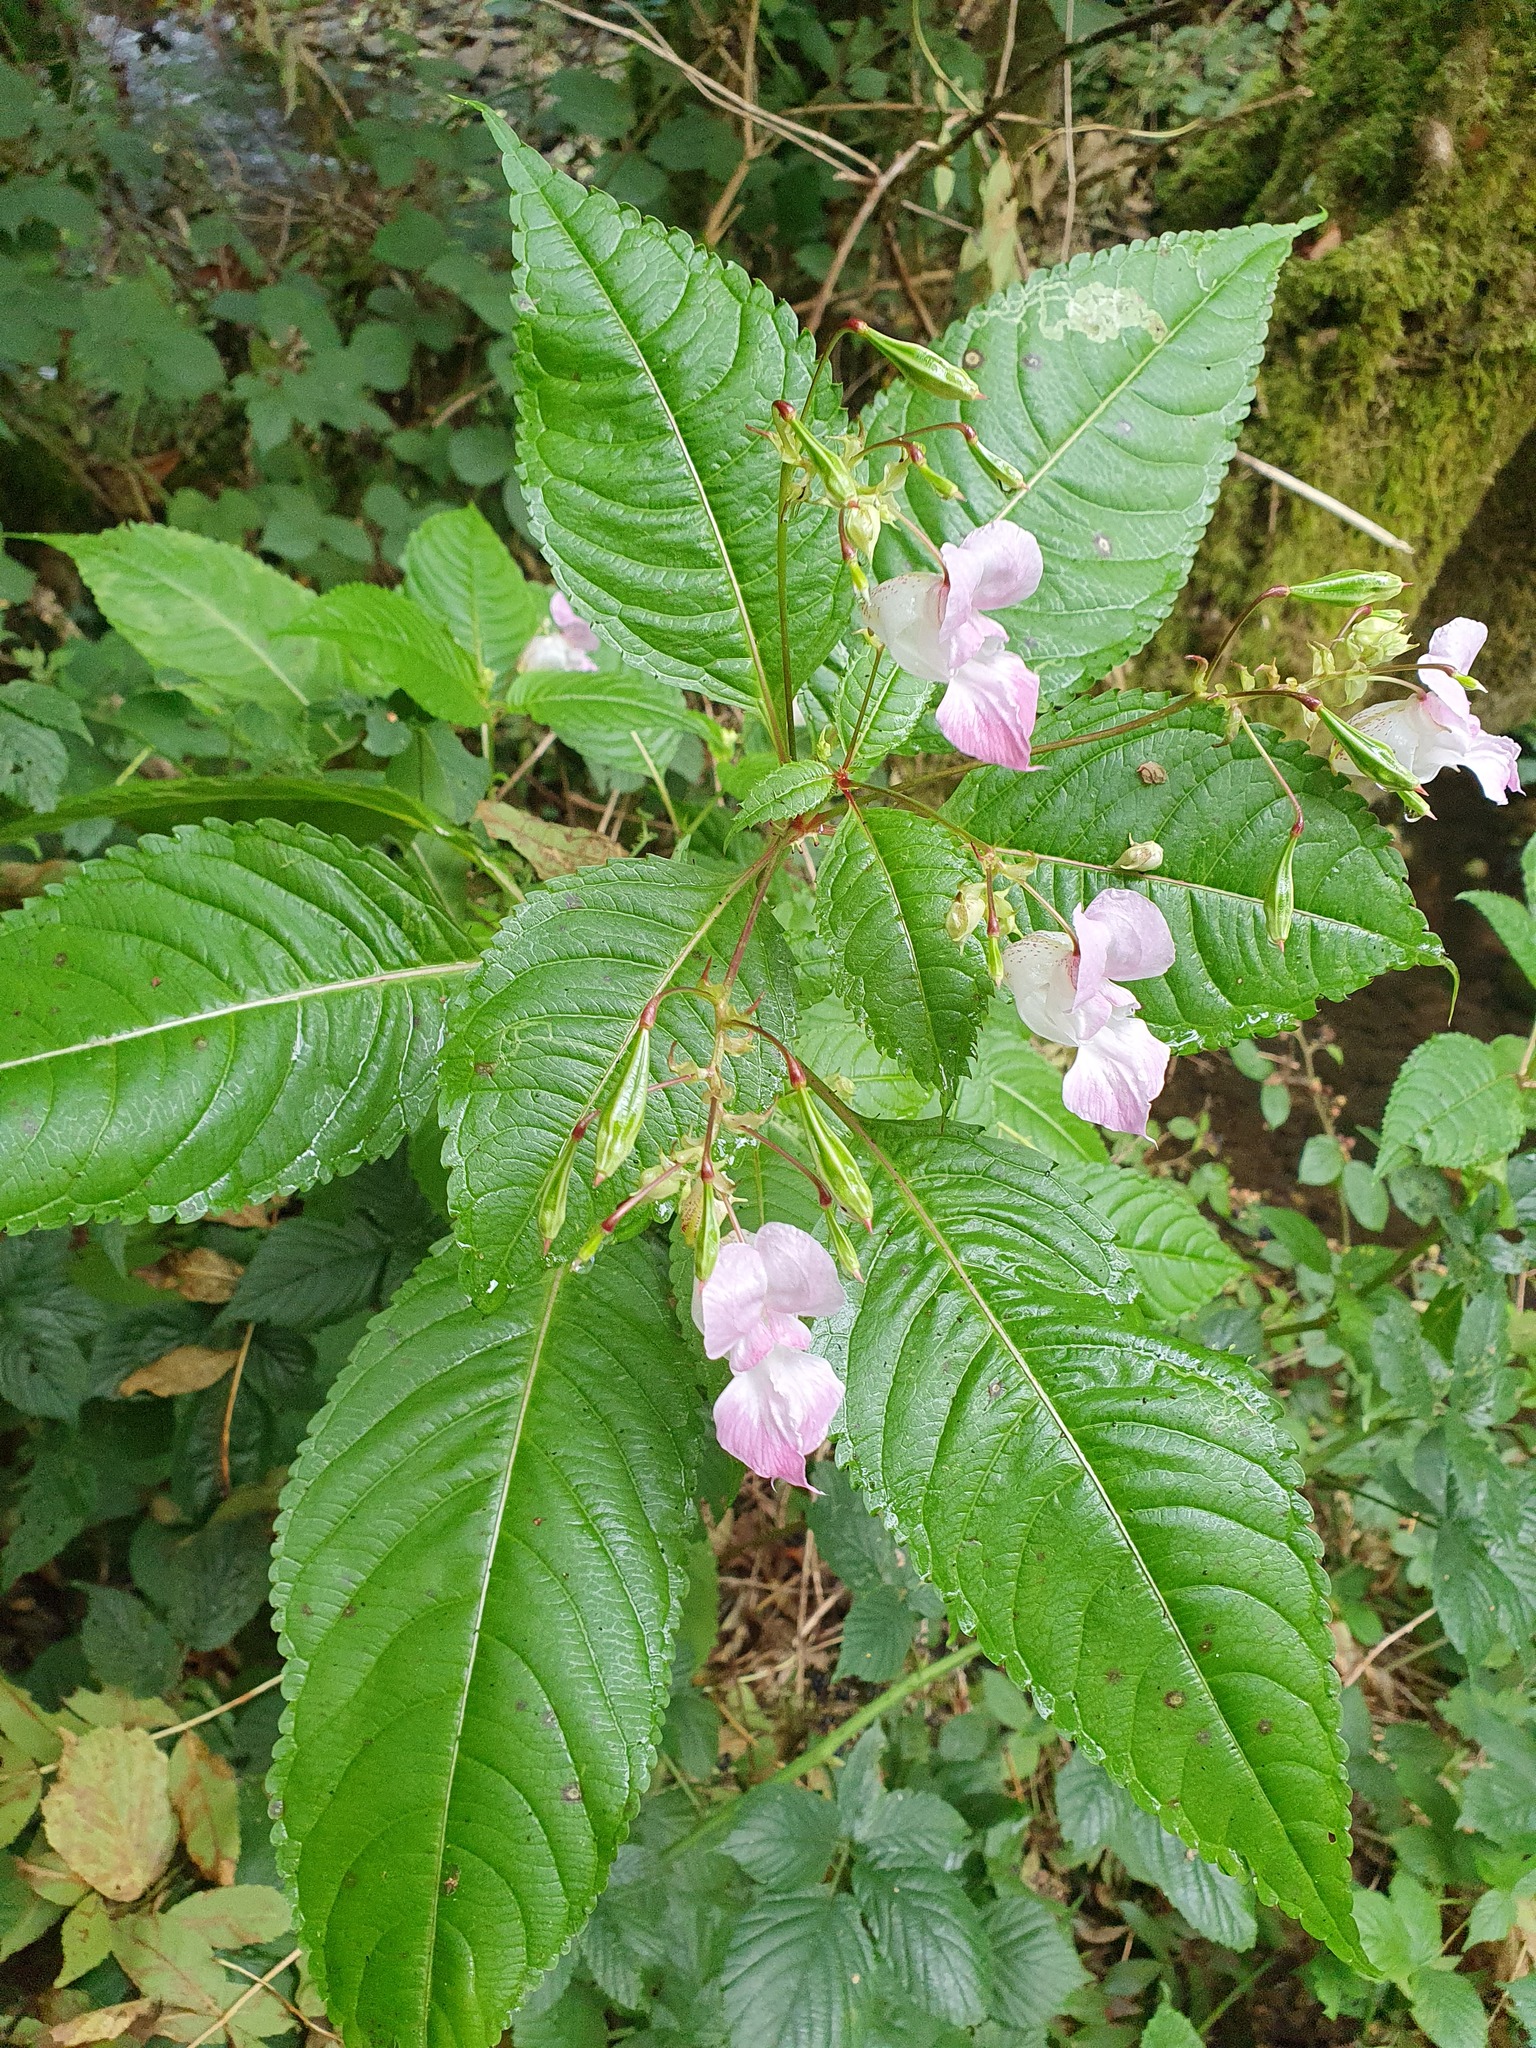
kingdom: Plantae
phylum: Tracheophyta
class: Magnoliopsida
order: Ericales
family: Balsaminaceae
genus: Impatiens
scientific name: Impatiens glandulifera
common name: Himalayan balsam
